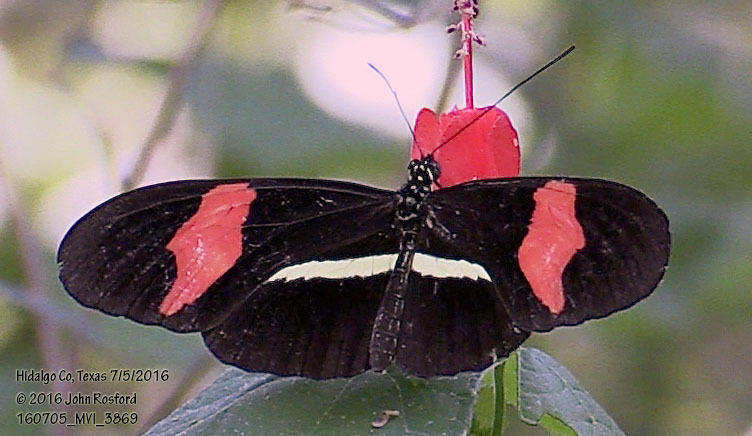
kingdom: Animalia
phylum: Arthropoda
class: Insecta
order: Lepidoptera
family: Nymphalidae
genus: Heliconius
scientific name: Heliconius erato
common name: Common patch longwing
